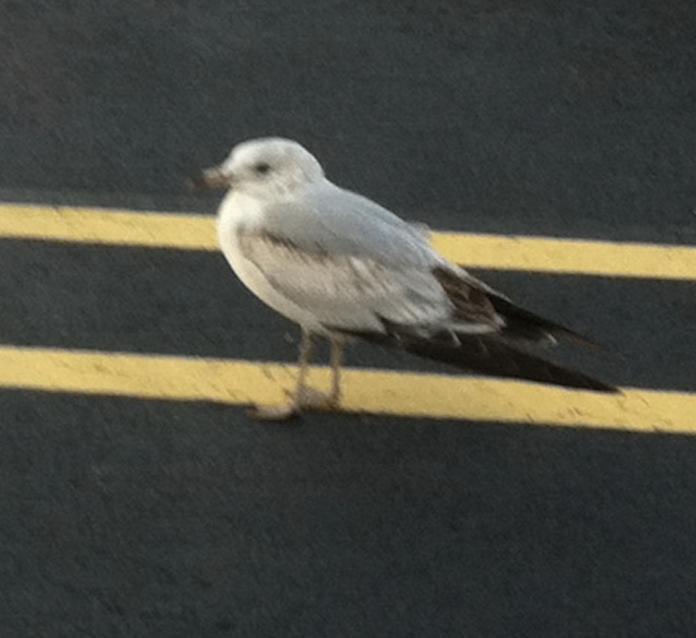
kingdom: Animalia
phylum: Chordata
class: Aves
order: Charadriiformes
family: Laridae
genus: Larus
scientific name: Larus delawarensis
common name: Ring-billed gull
